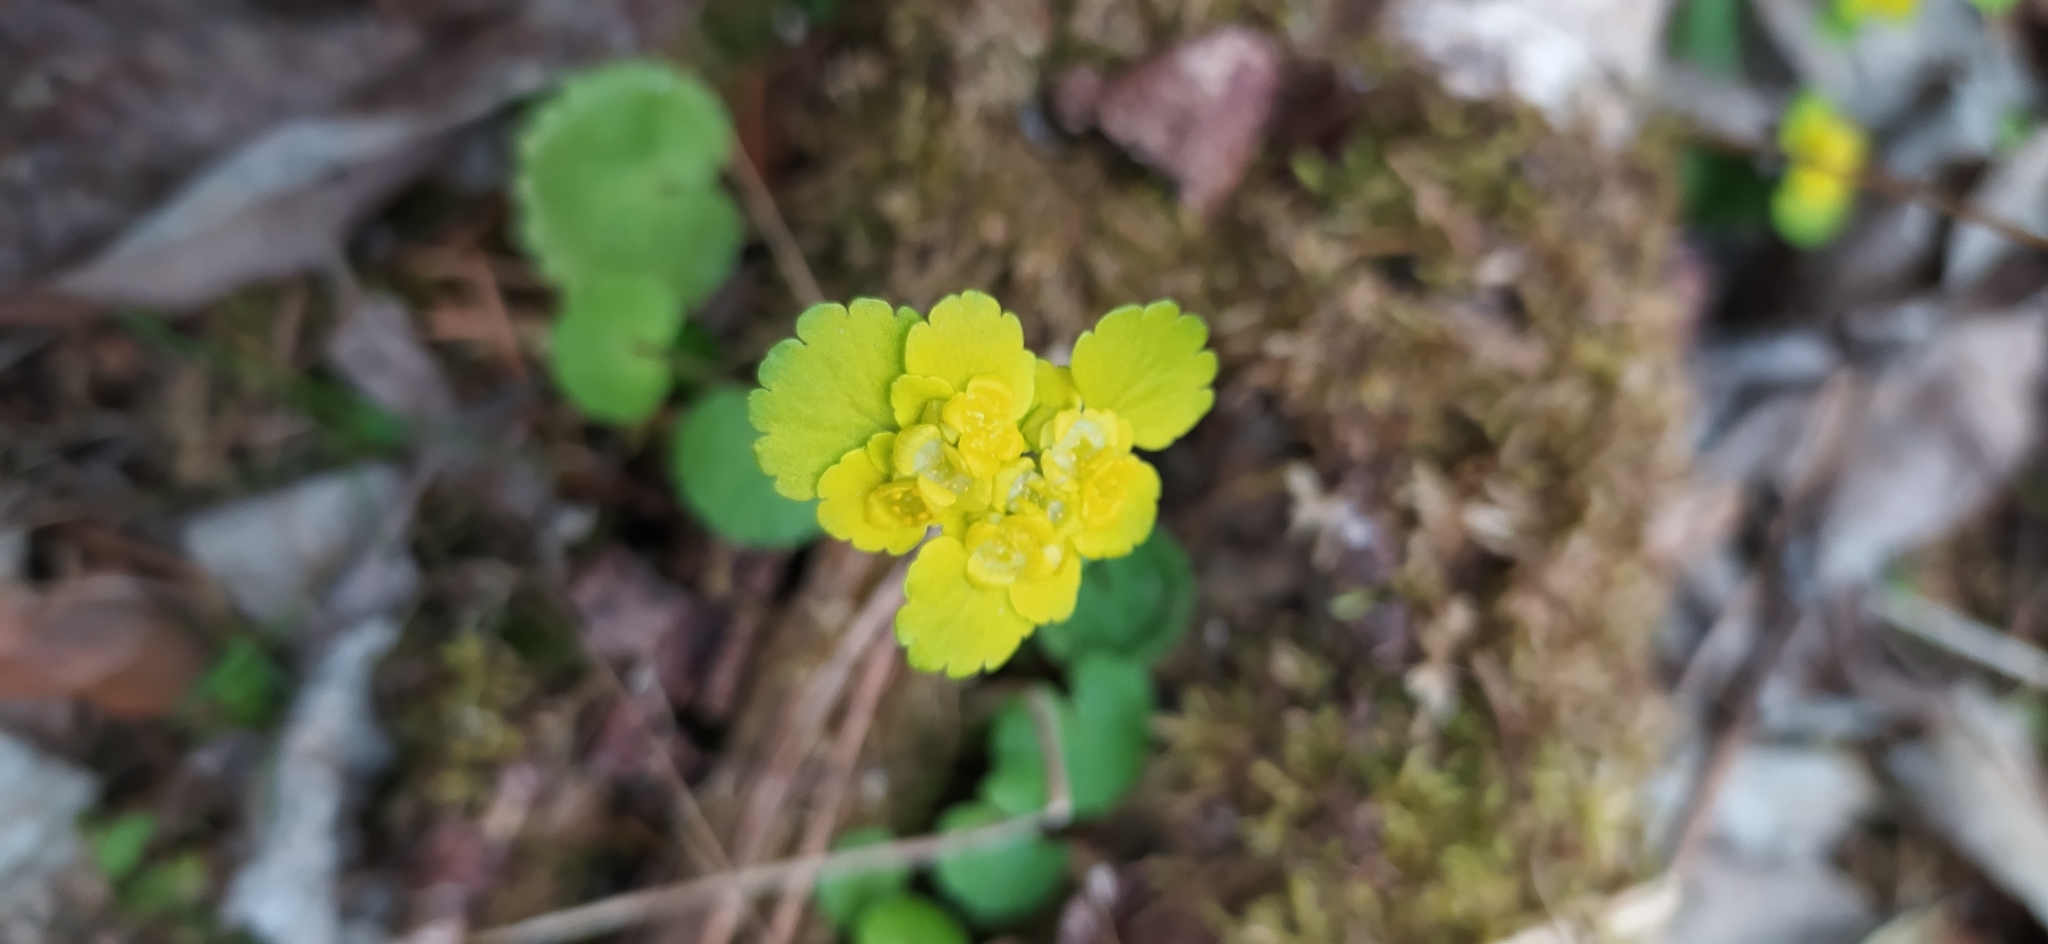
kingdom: Plantae
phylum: Tracheophyta
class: Magnoliopsida
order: Saxifragales
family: Saxifragaceae
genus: Chrysosplenium
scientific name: Chrysosplenium alternifolium
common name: Alternate-leaved golden-saxifrage
